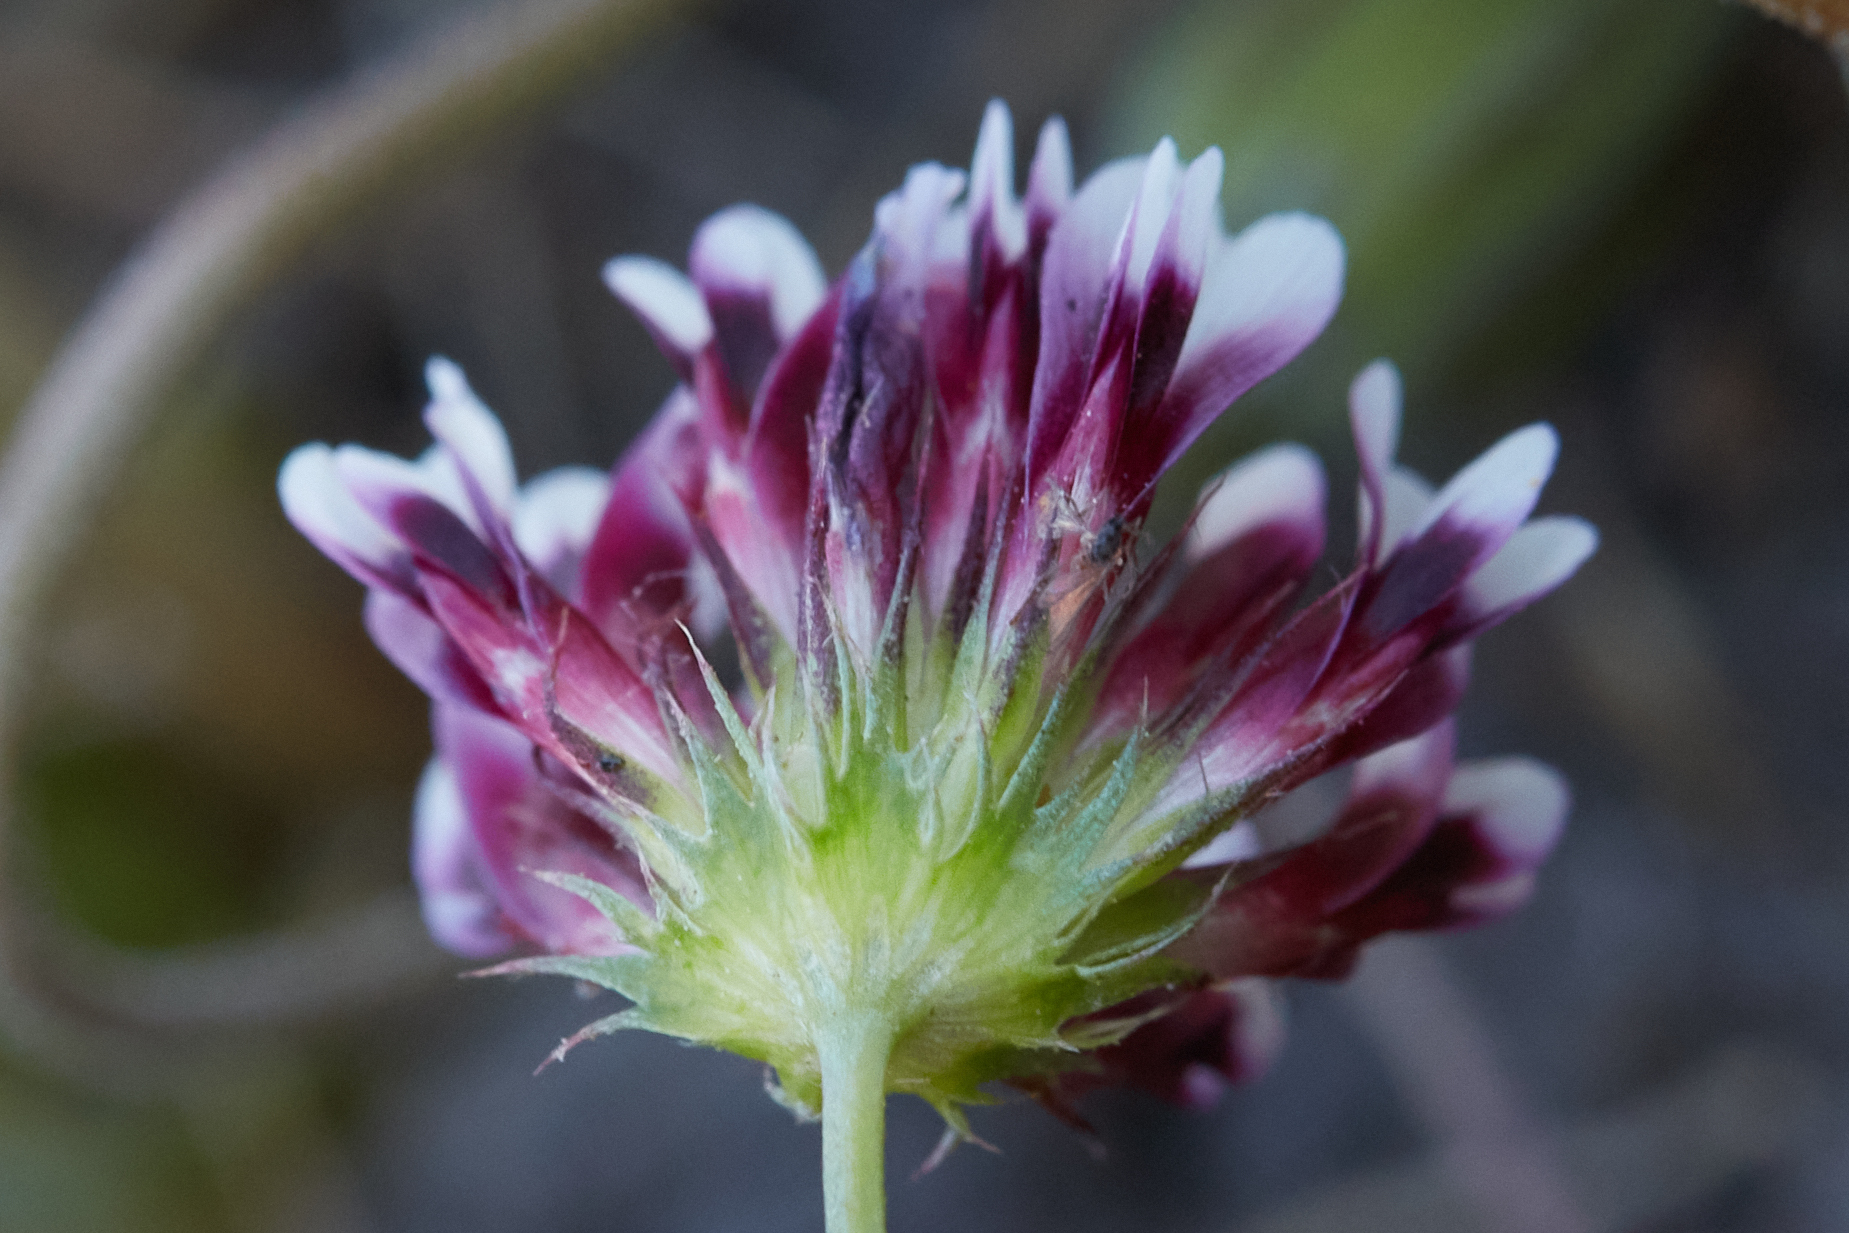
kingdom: Plantae
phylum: Tracheophyta
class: Magnoliopsida
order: Fabales
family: Fabaceae
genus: Trifolium
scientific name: Trifolium variegatum
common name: Whitetip clover
